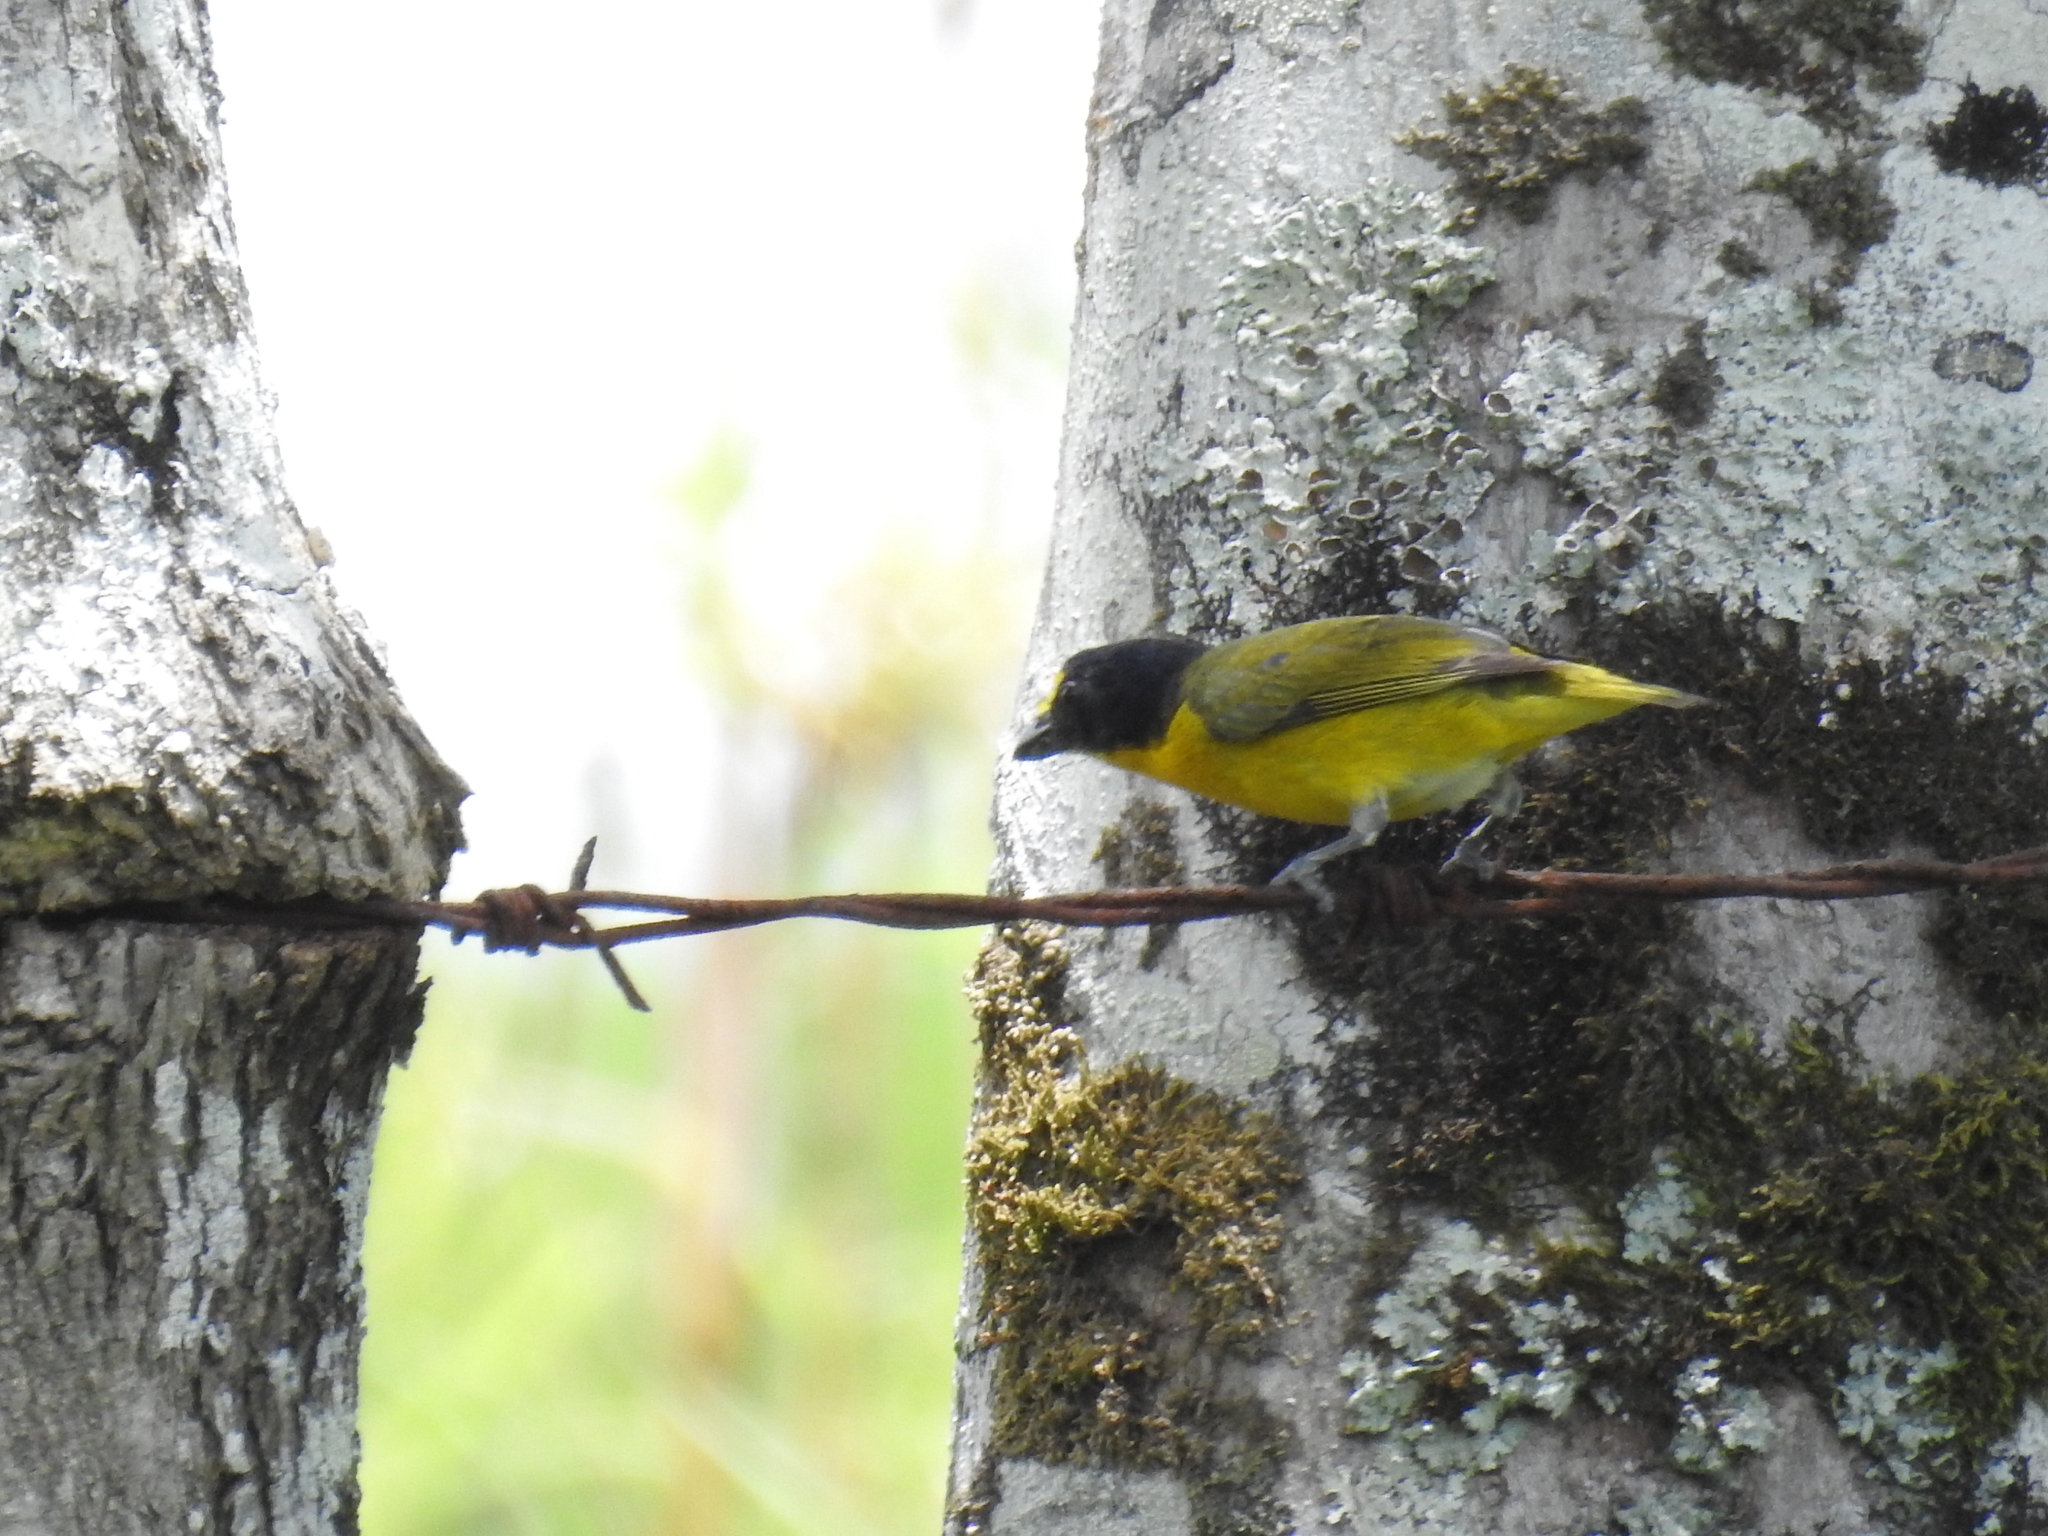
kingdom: Animalia
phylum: Chordata
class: Aves
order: Passeriformes
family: Fringillidae
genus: Euphonia
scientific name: Euphonia hirundinacea
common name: Yellow-throated euphonia
